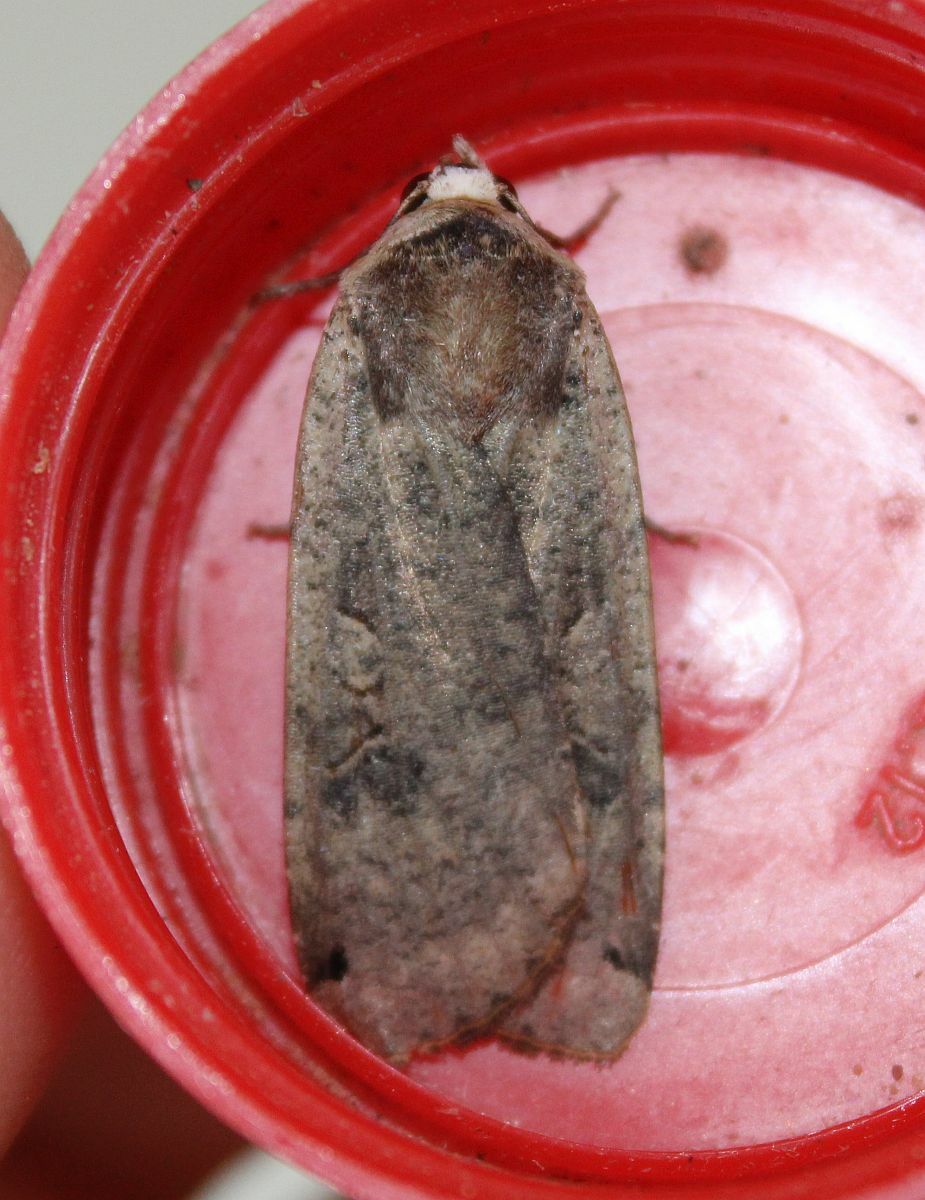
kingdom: Animalia
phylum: Arthropoda
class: Insecta
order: Lepidoptera
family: Noctuidae
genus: Noctua
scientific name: Noctua pronuba
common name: Large yellow underwing
